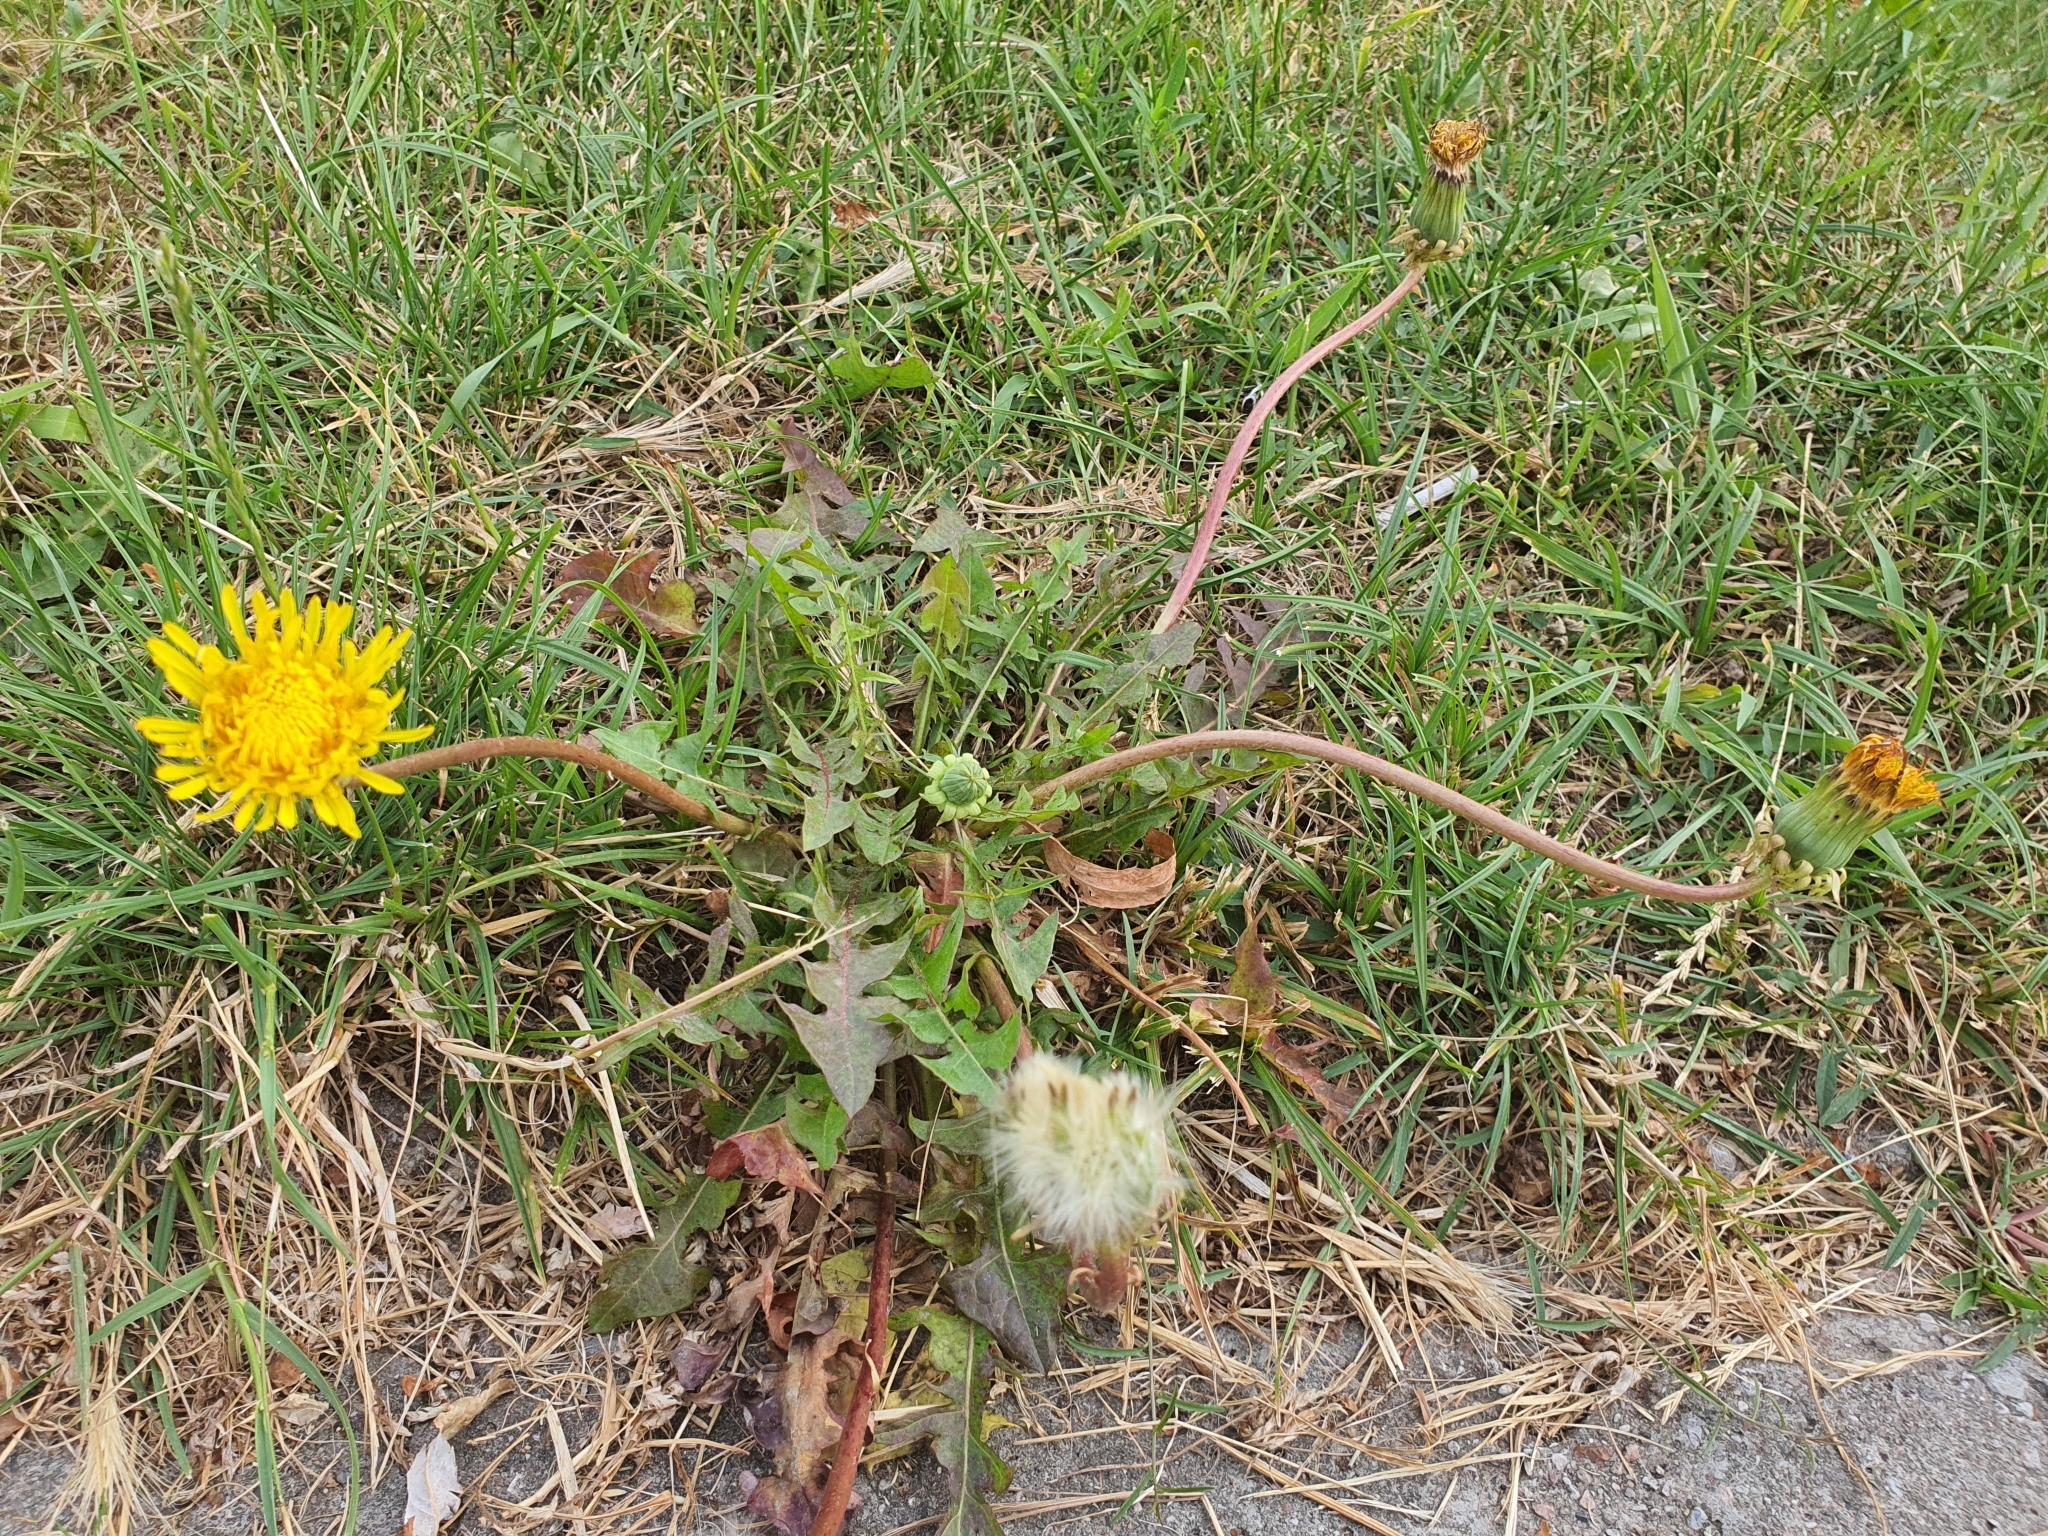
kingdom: Plantae
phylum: Tracheophyta
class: Magnoliopsida
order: Asterales
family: Asteraceae
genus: Taraxacum
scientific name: Taraxacum officinale
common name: Common dandelion
